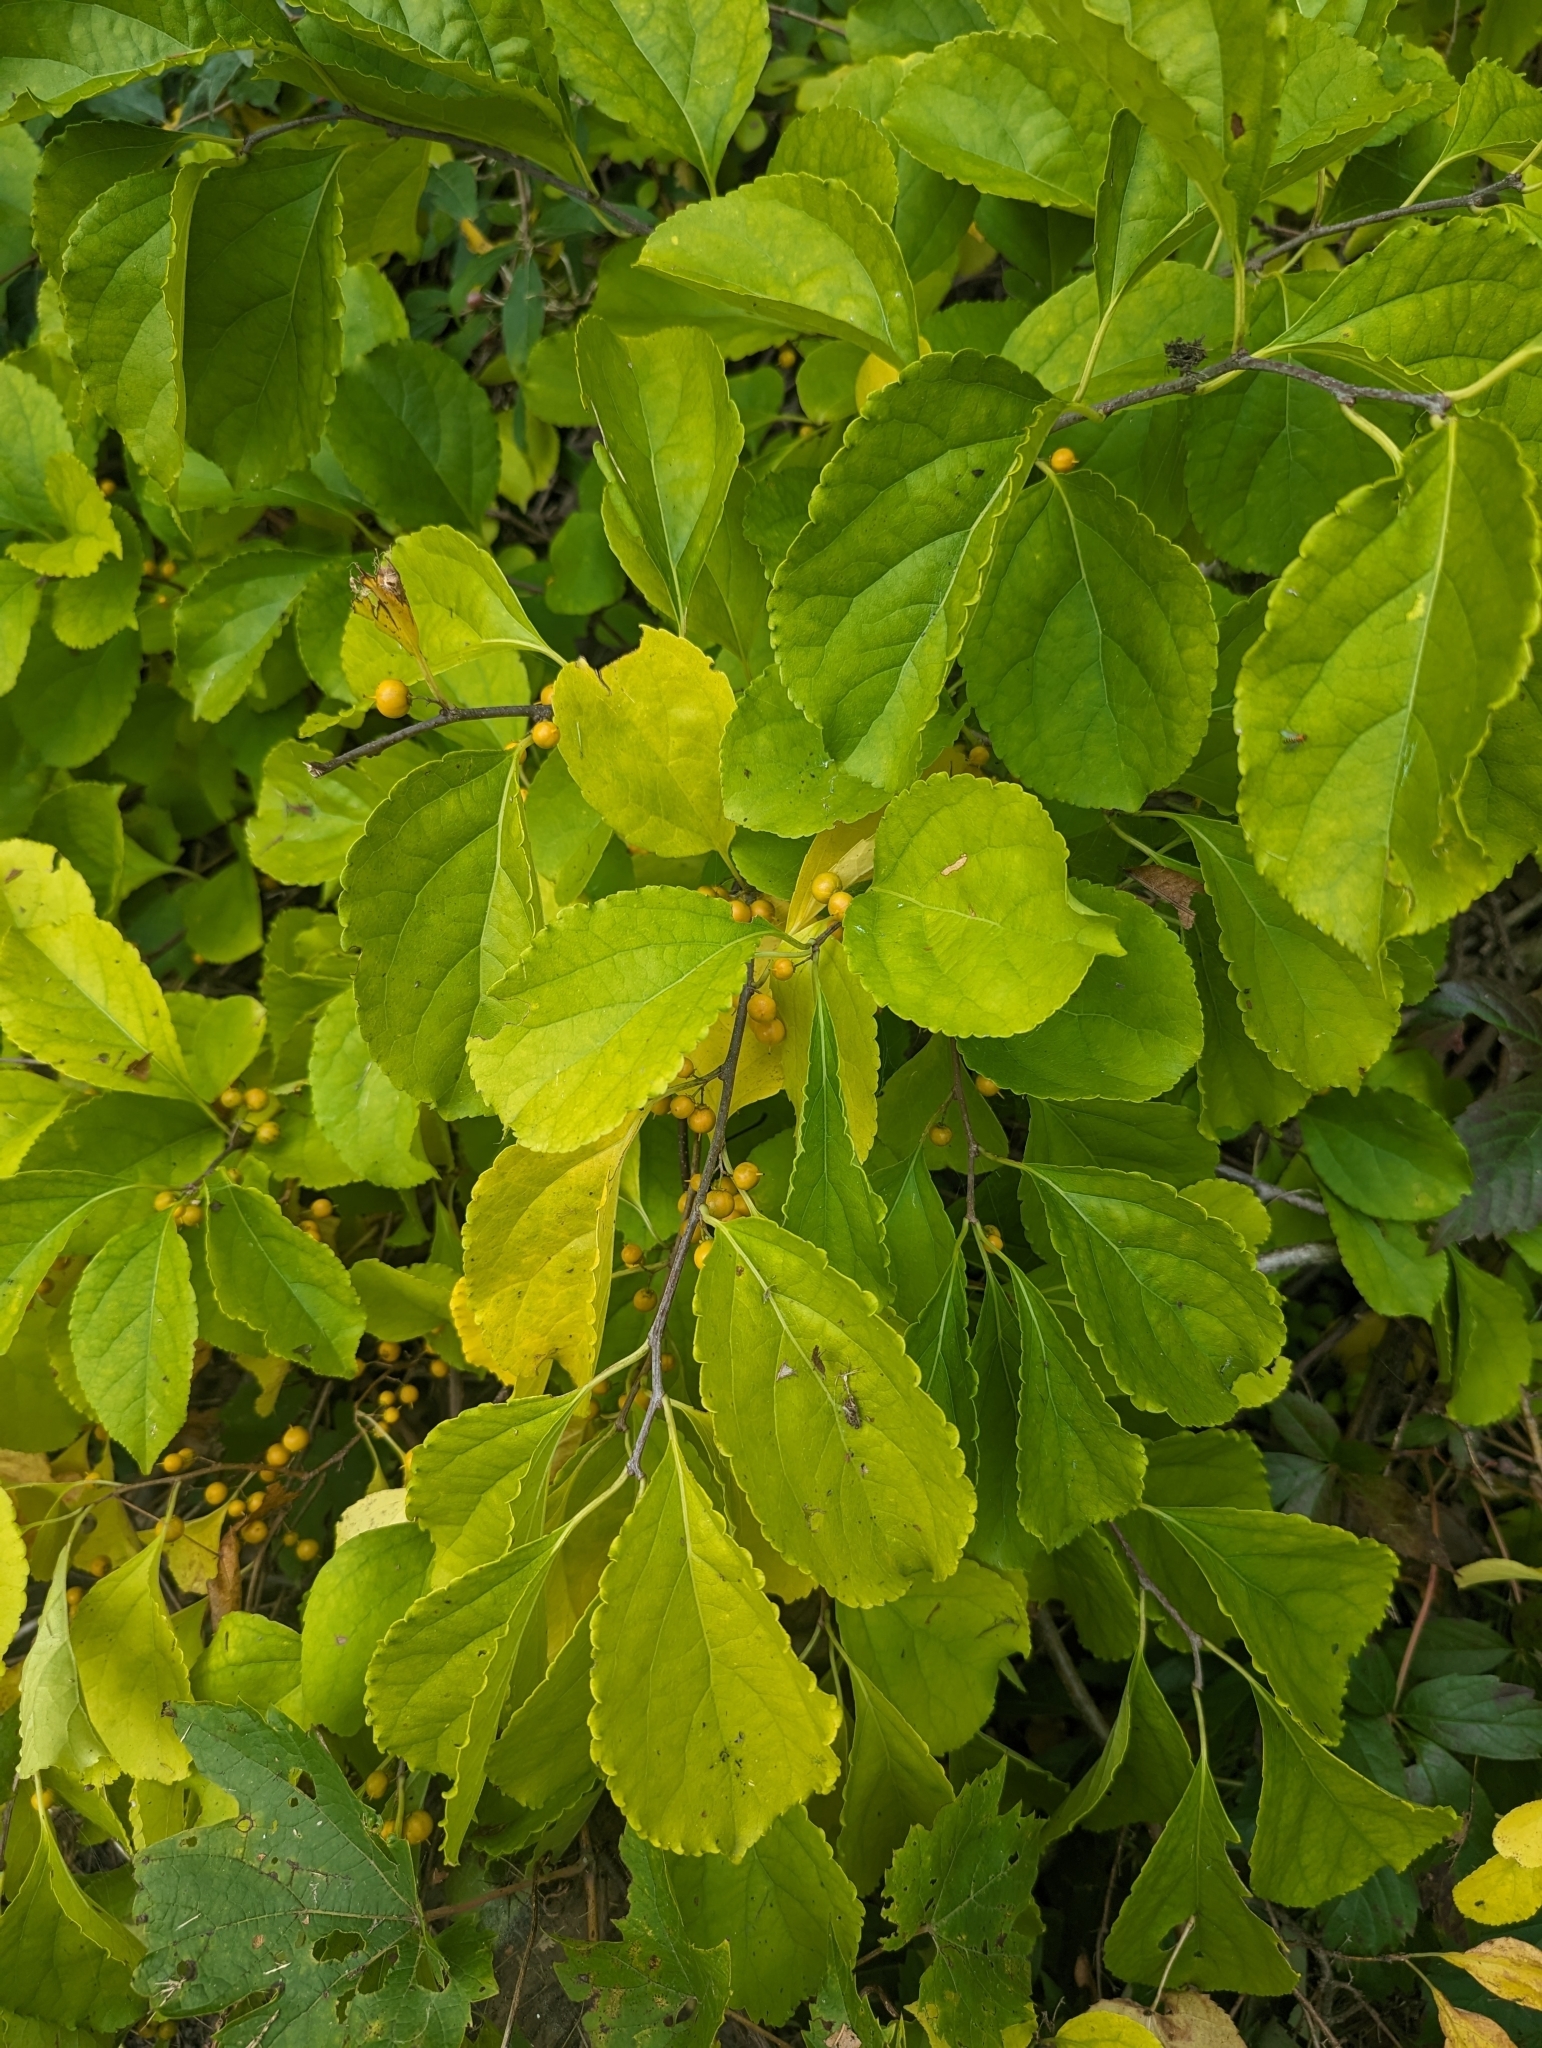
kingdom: Plantae
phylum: Tracheophyta
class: Magnoliopsida
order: Celastrales
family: Celastraceae
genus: Celastrus
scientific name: Celastrus orbiculatus
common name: Oriental bittersweet
